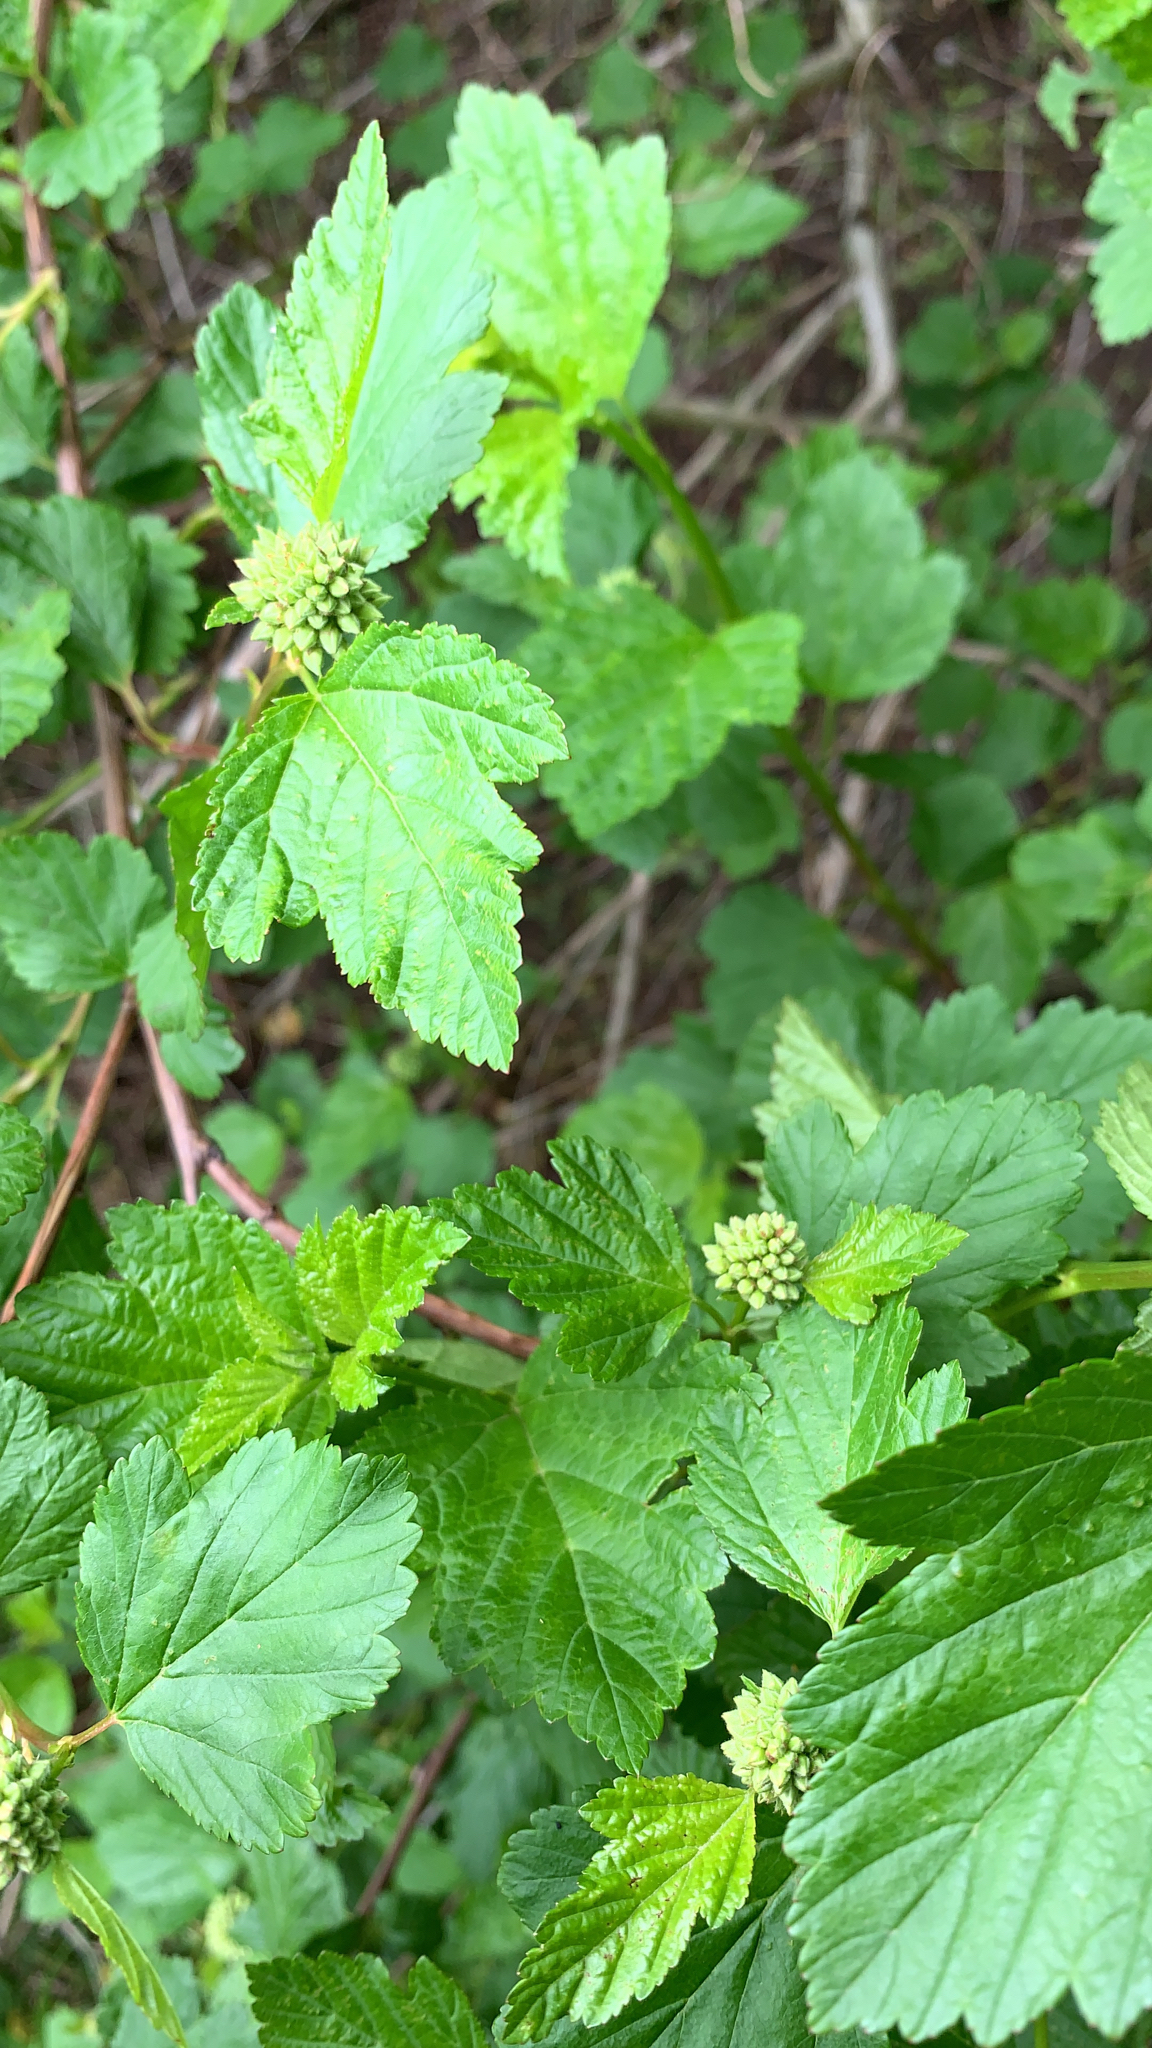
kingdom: Plantae
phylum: Tracheophyta
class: Magnoliopsida
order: Rosales
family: Rosaceae
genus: Physocarpus
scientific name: Physocarpus opulifolius
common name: Ninebark
